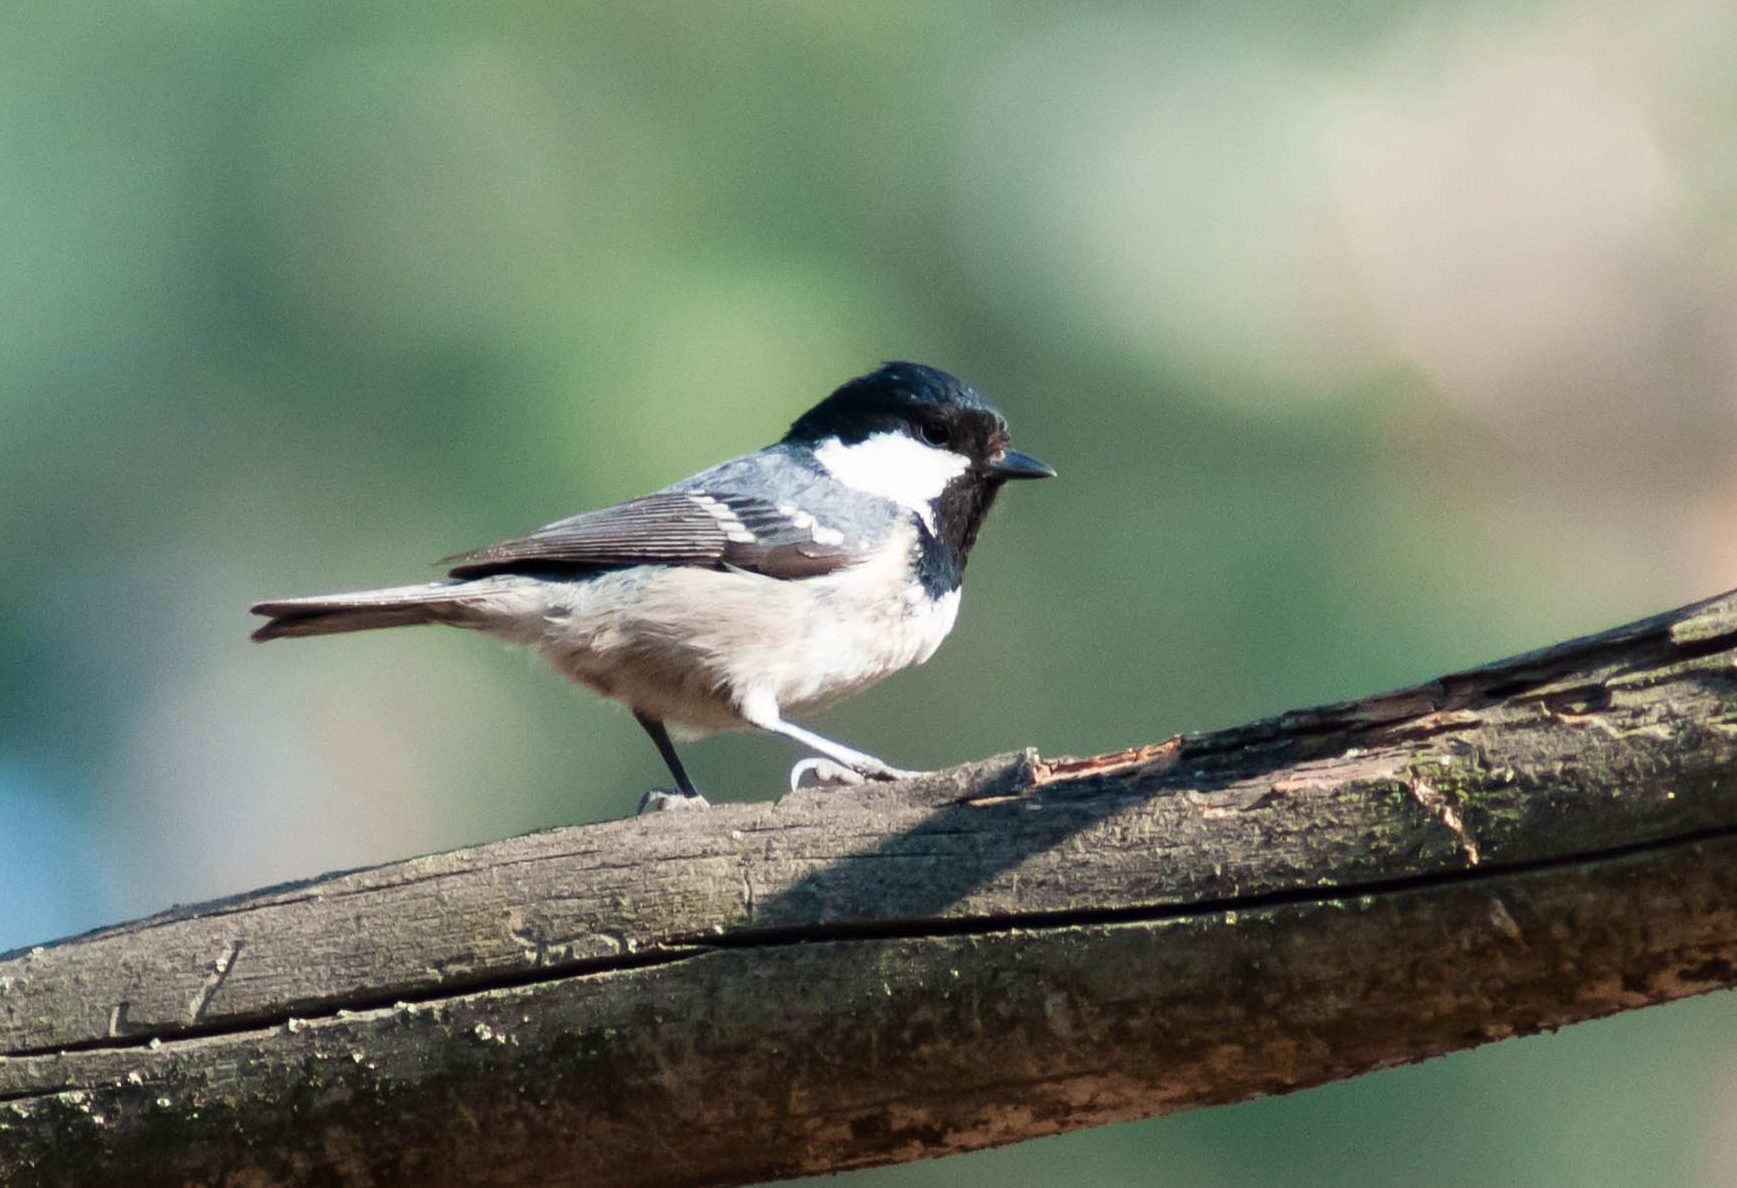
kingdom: Animalia
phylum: Chordata
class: Aves
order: Passeriformes
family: Paridae
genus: Periparus
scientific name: Periparus ater
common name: Coal tit
